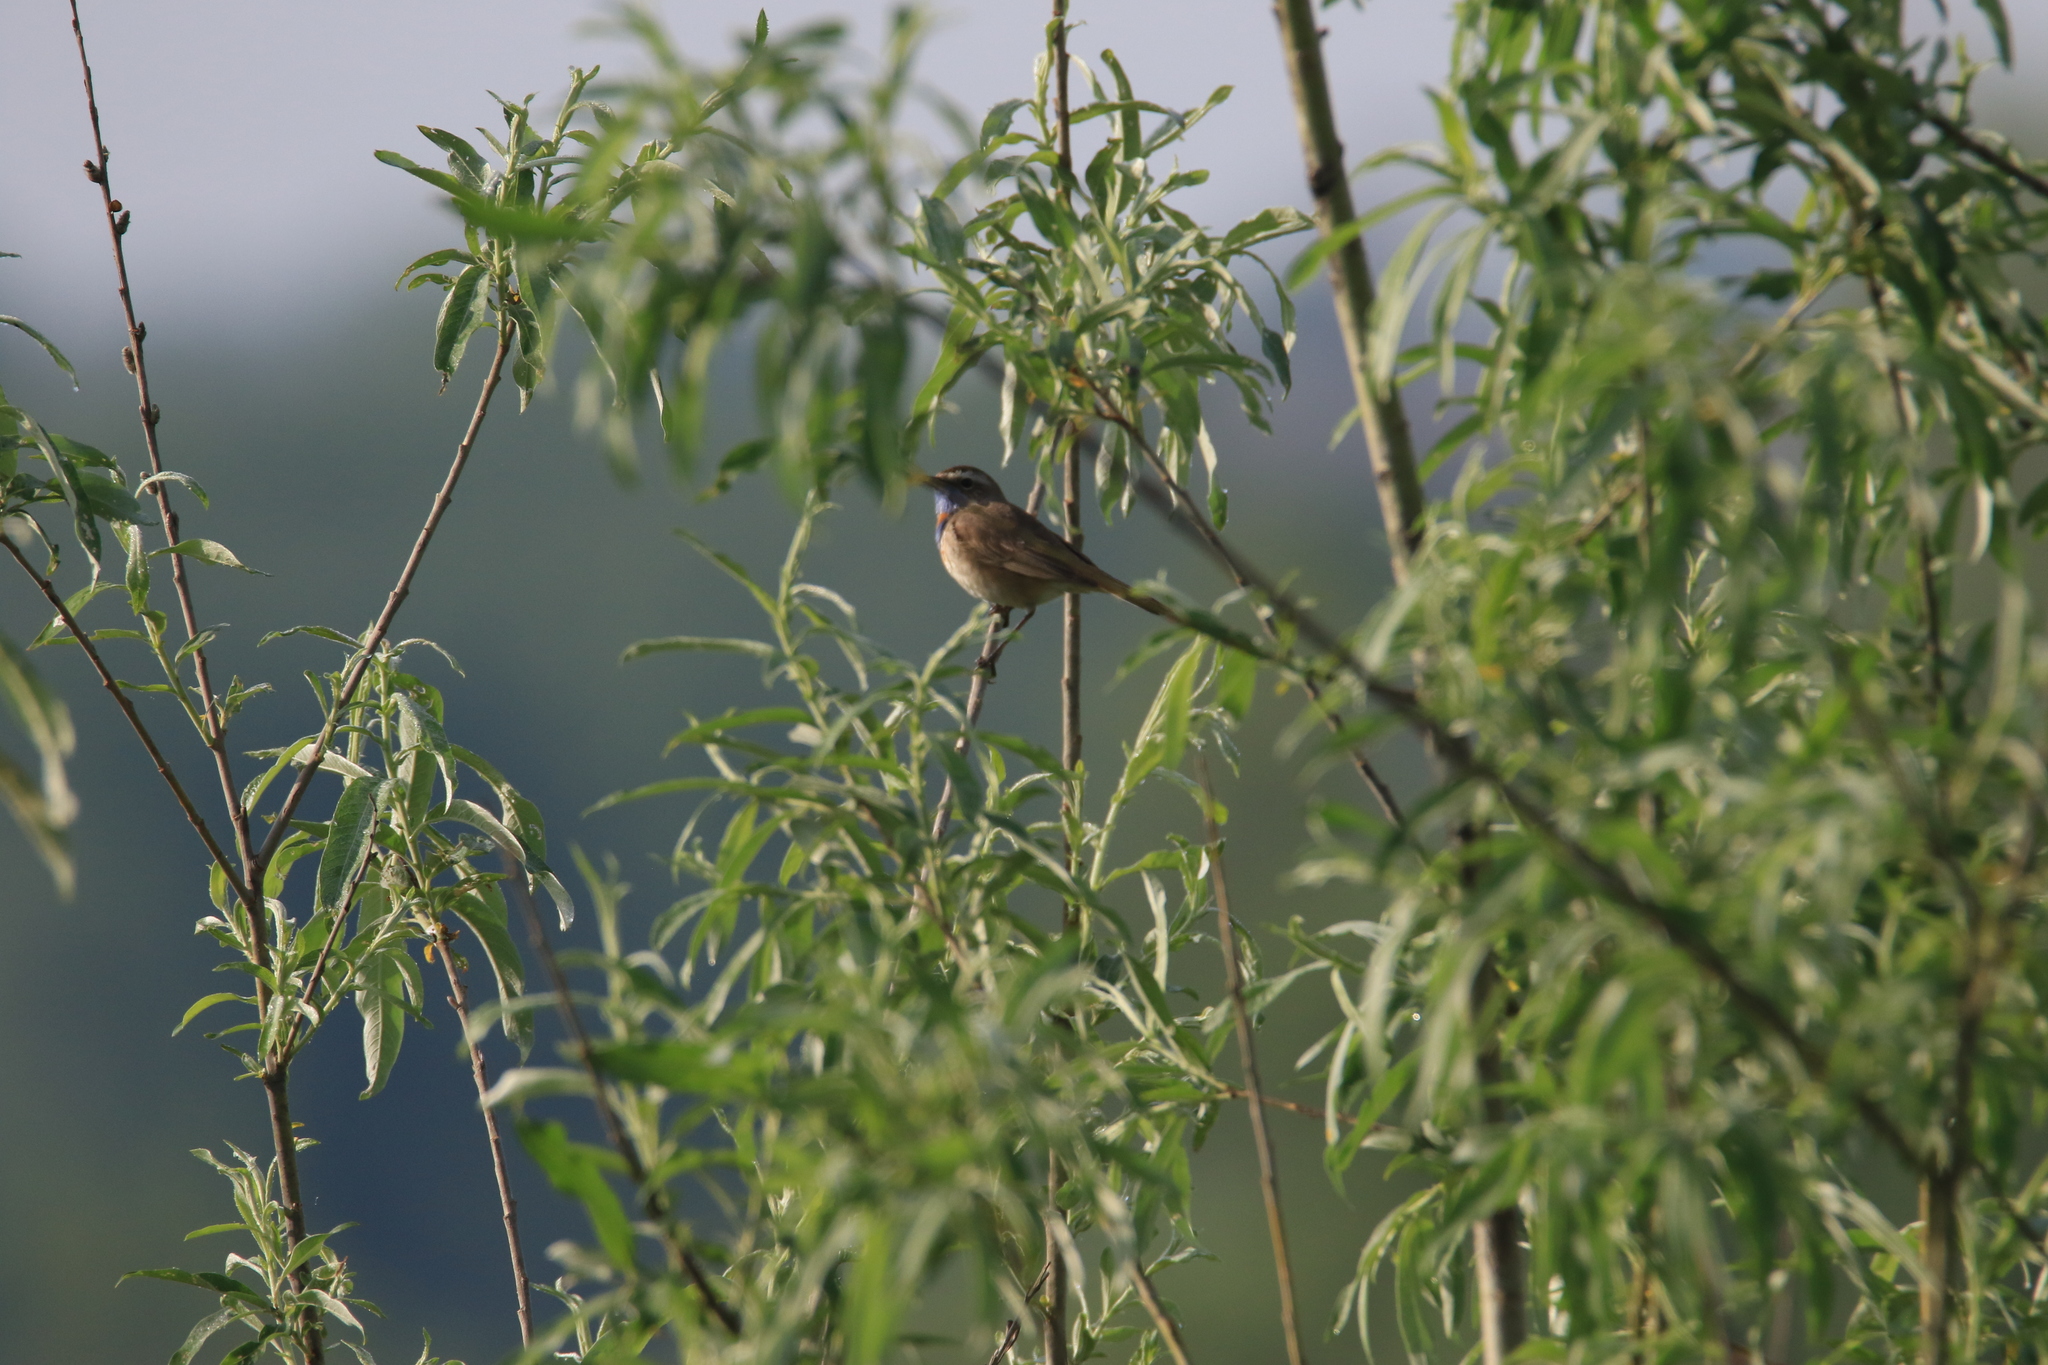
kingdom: Animalia
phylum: Chordata
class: Aves
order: Passeriformes
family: Muscicapidae
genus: Luscinia
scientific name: Luscinia svecica
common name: Bluethroat
